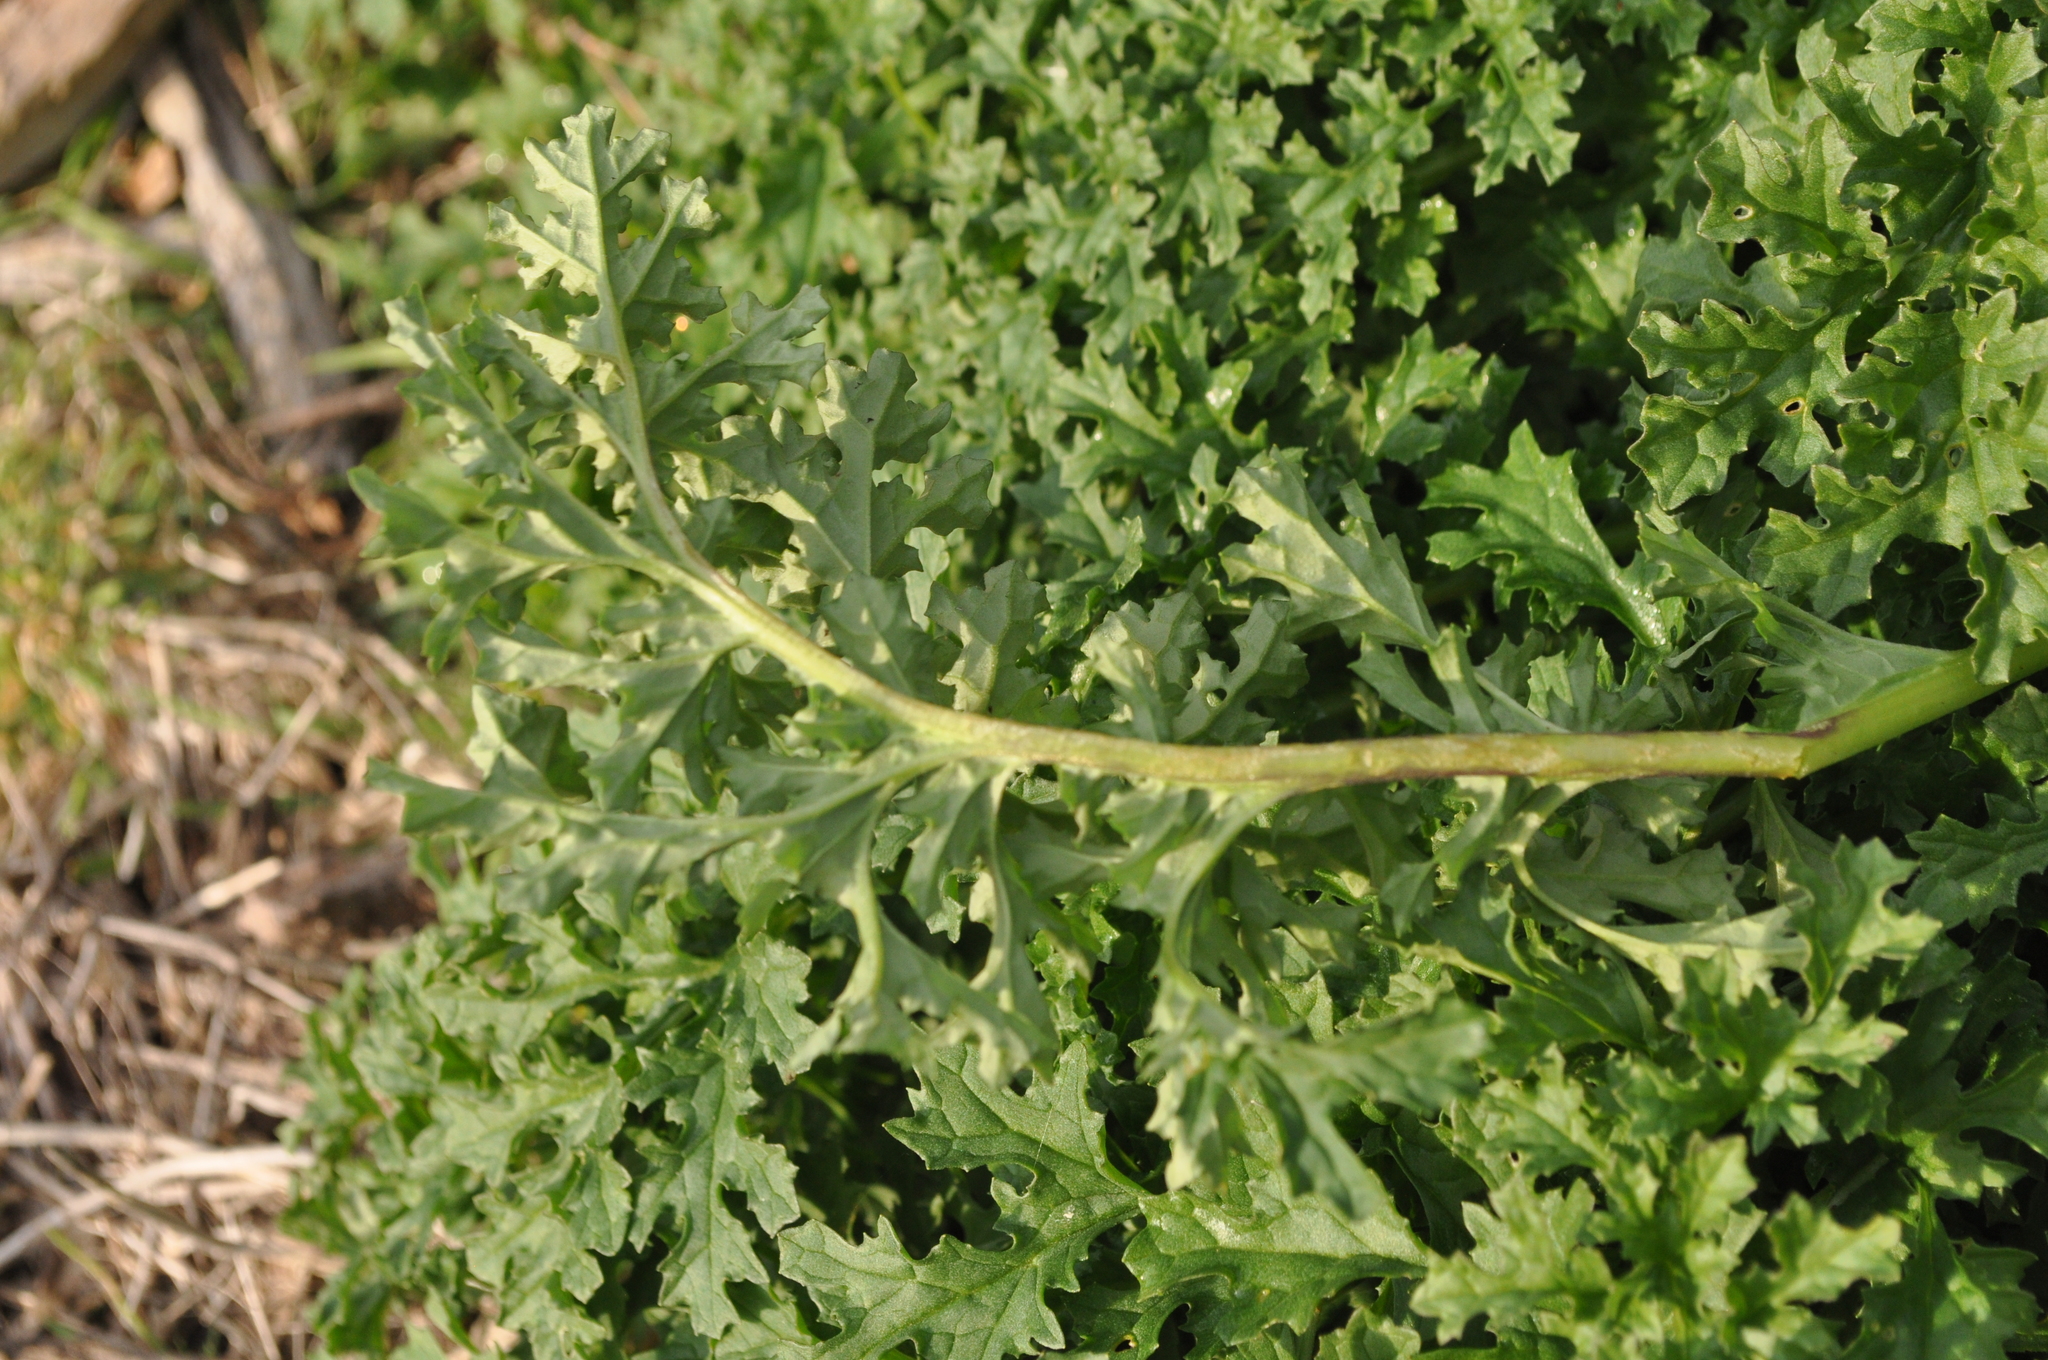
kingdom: Plantae
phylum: Tracheophyta
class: Magnoliopsida
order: Asterales
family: Asteraceae
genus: Jacobaea
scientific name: Jacobaea vulgaris
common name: Stinking willie
